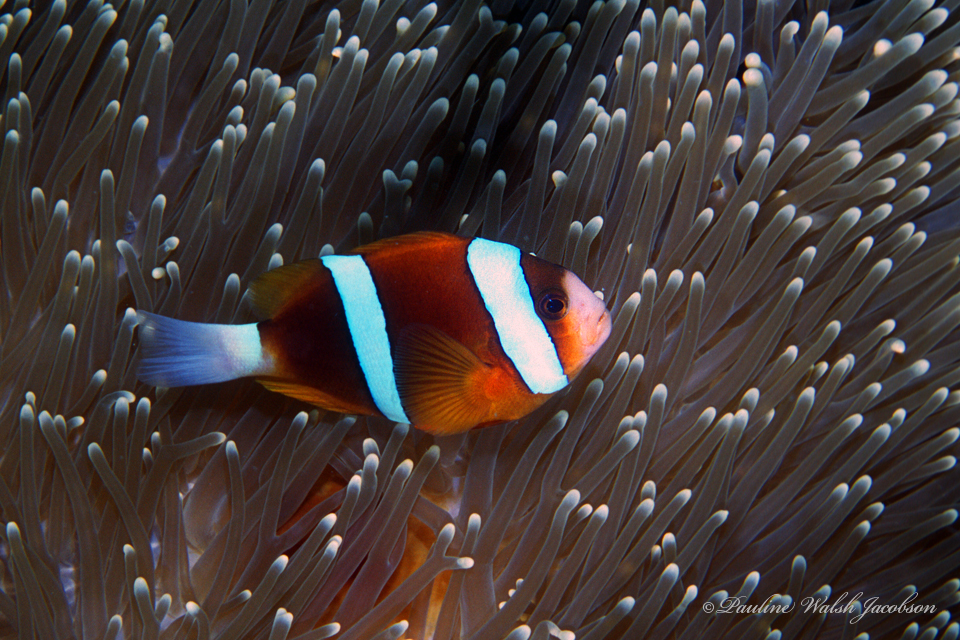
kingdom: Animalia
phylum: Chordata
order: Perciformes
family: Pomacentridae
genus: Amphiprion
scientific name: Amphiprion akindynos
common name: Barrier reef anemonefish
